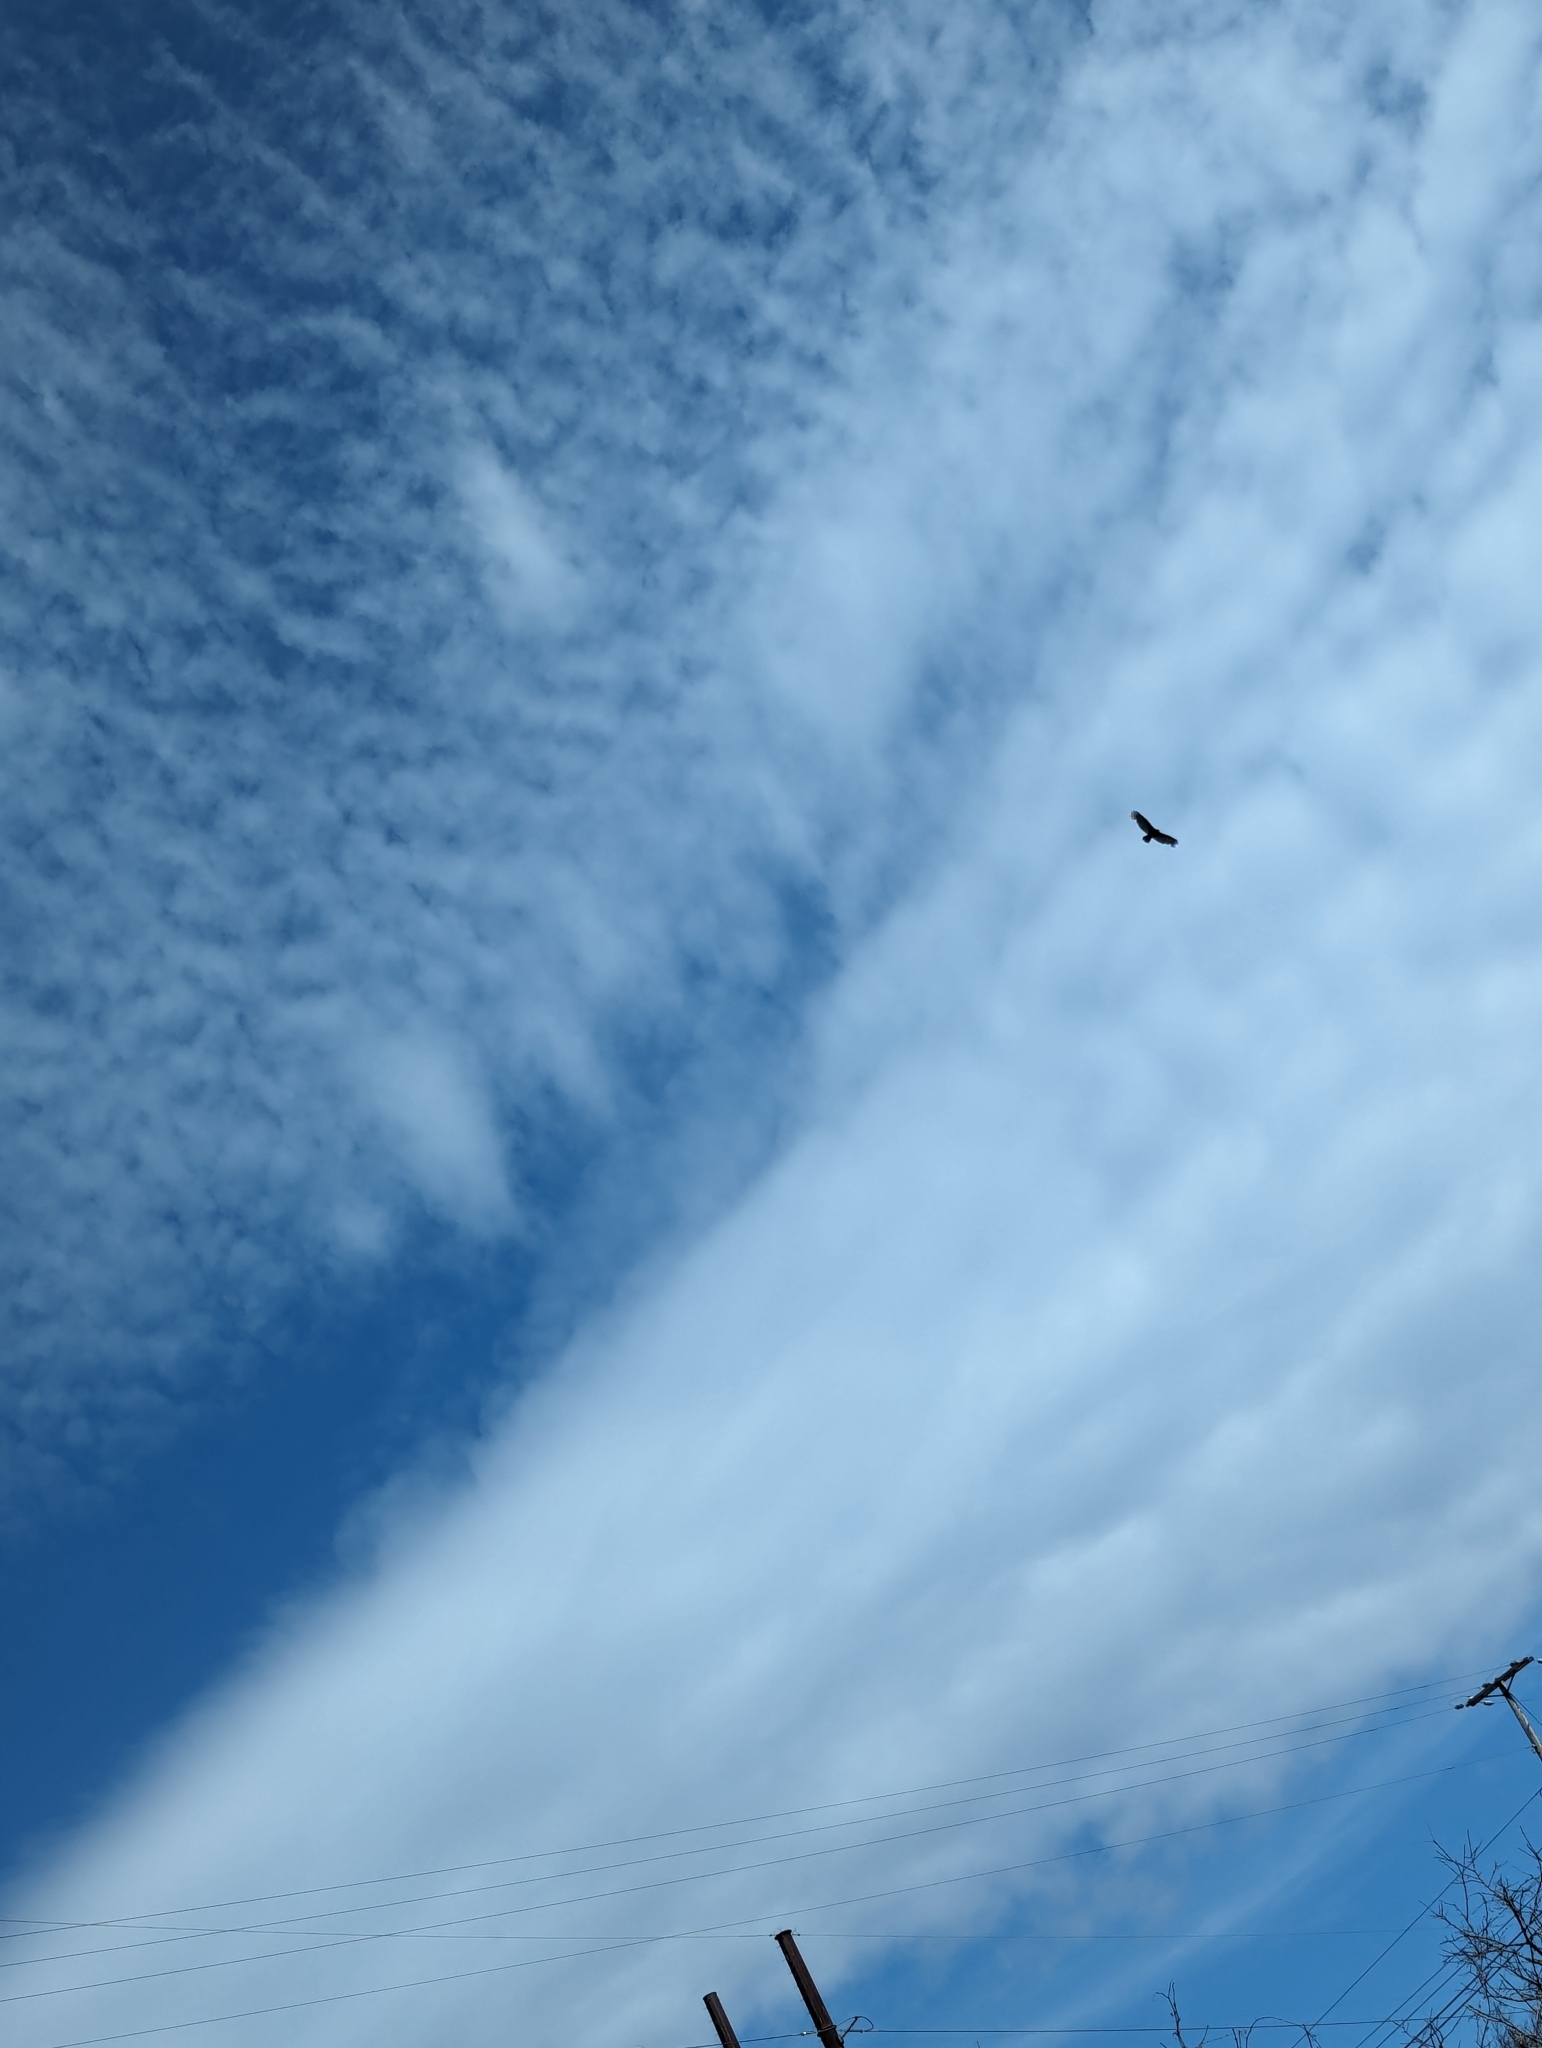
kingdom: Animalia
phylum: Chordata
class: Aves
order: Accipitriformes
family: Cathartidae
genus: Cathartes
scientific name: Cathartes aura
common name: Turkey vulture
